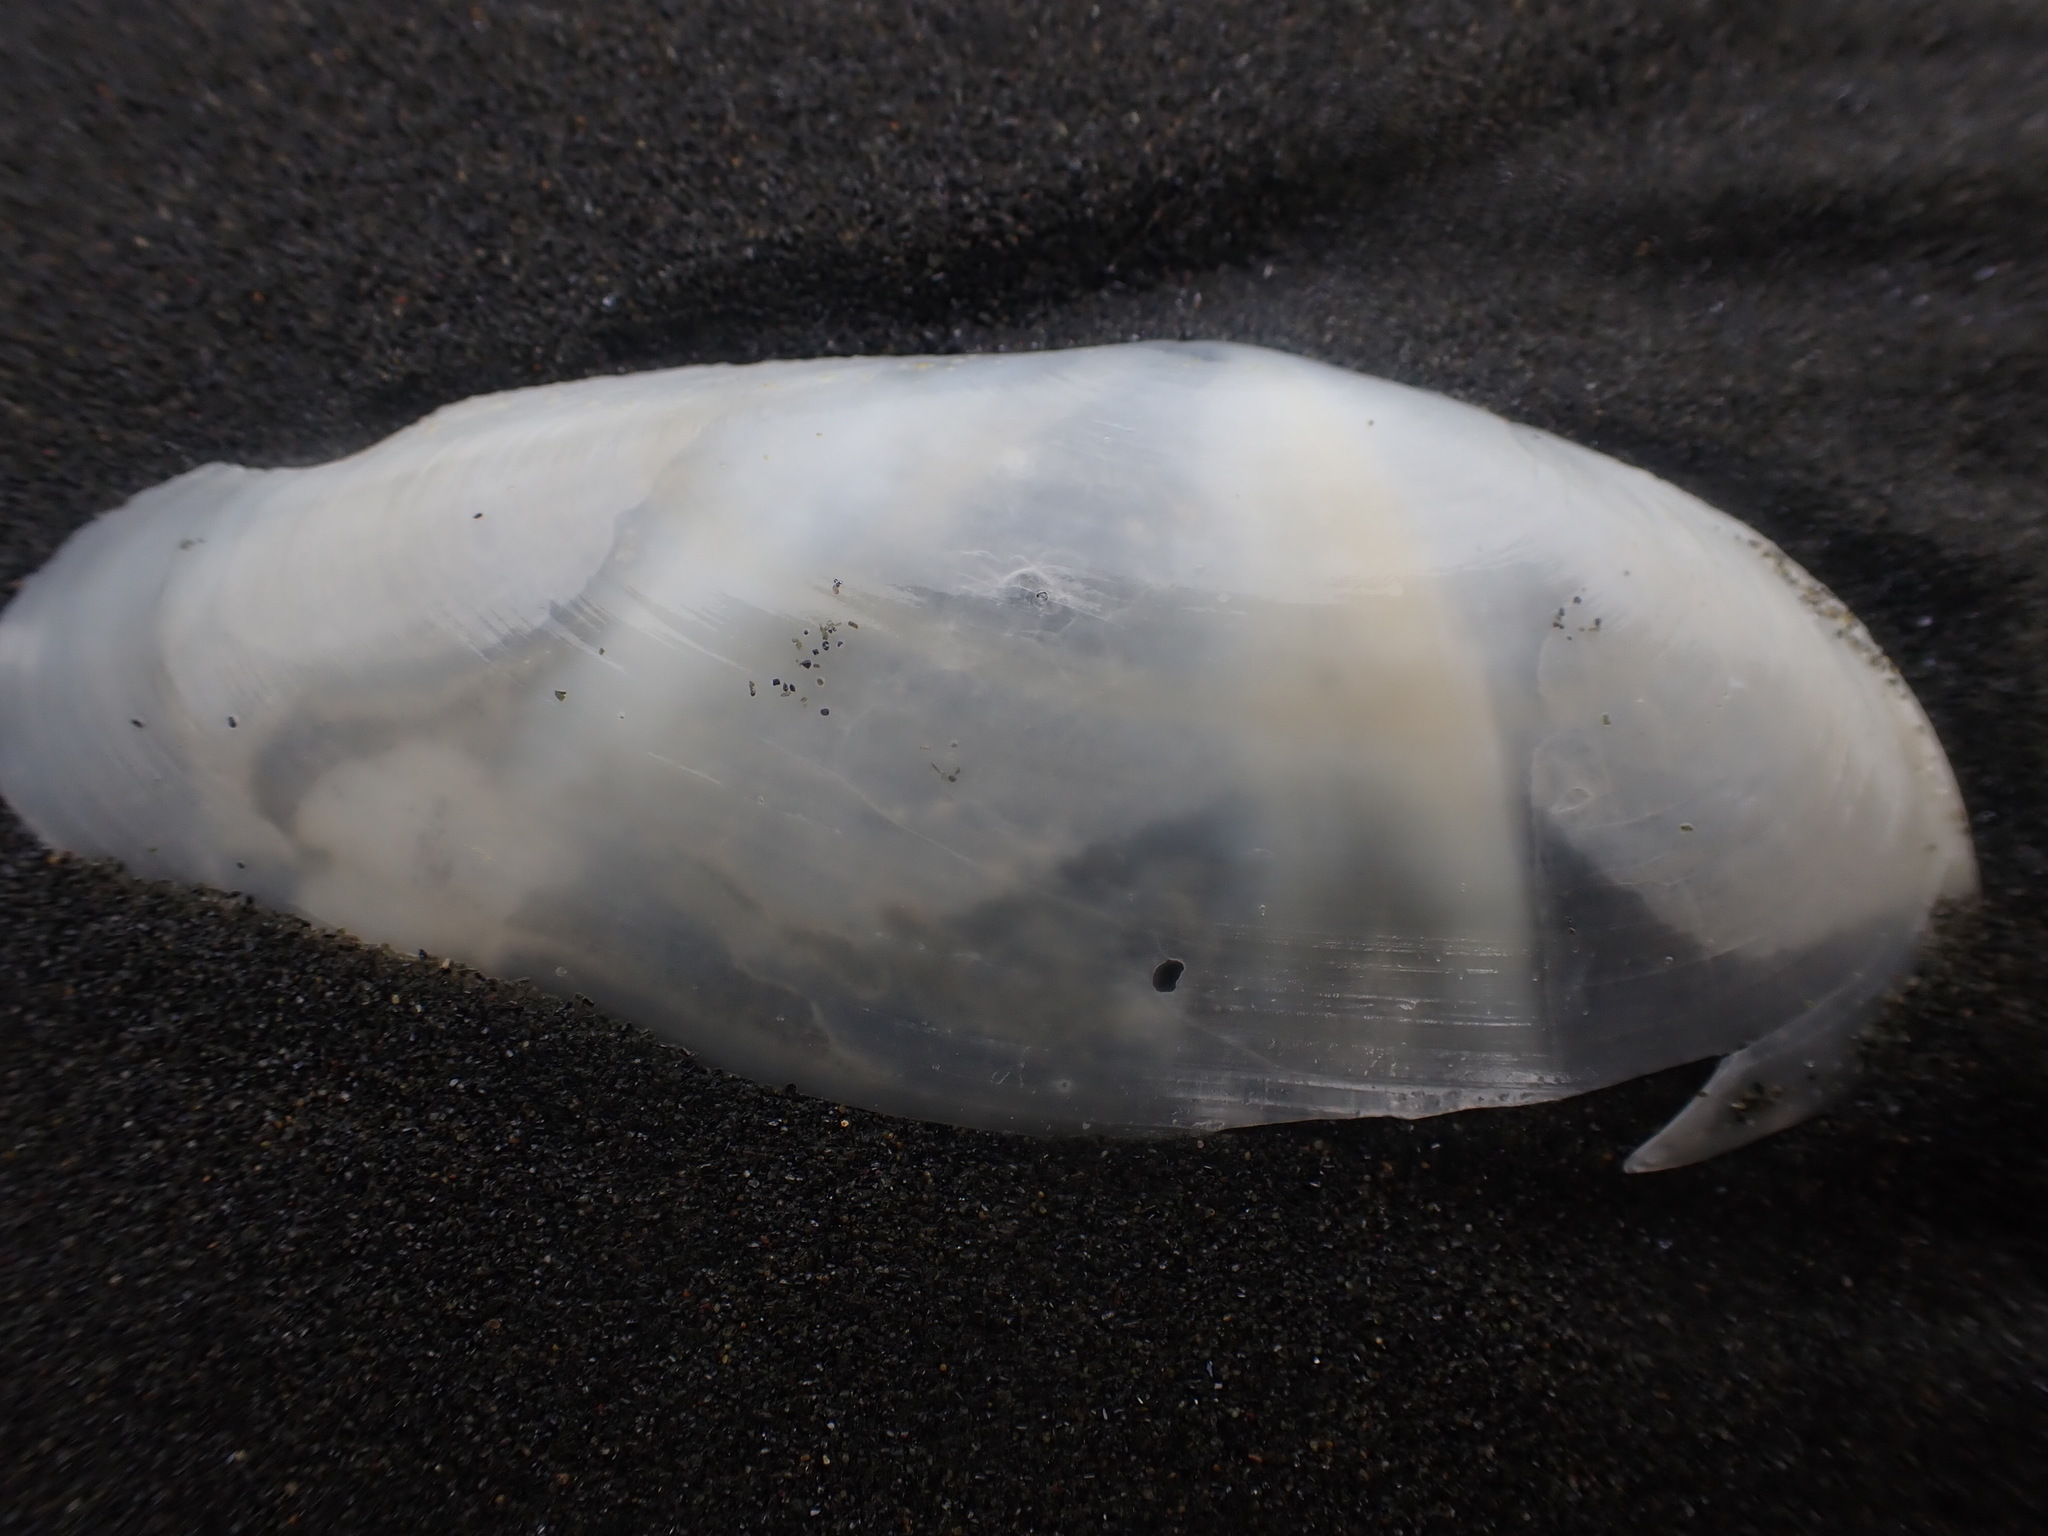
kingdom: Animalia
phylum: Mollusca
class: Bivalvia
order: Venerida
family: Mactridae
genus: Resania
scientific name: Resania lanceolata
